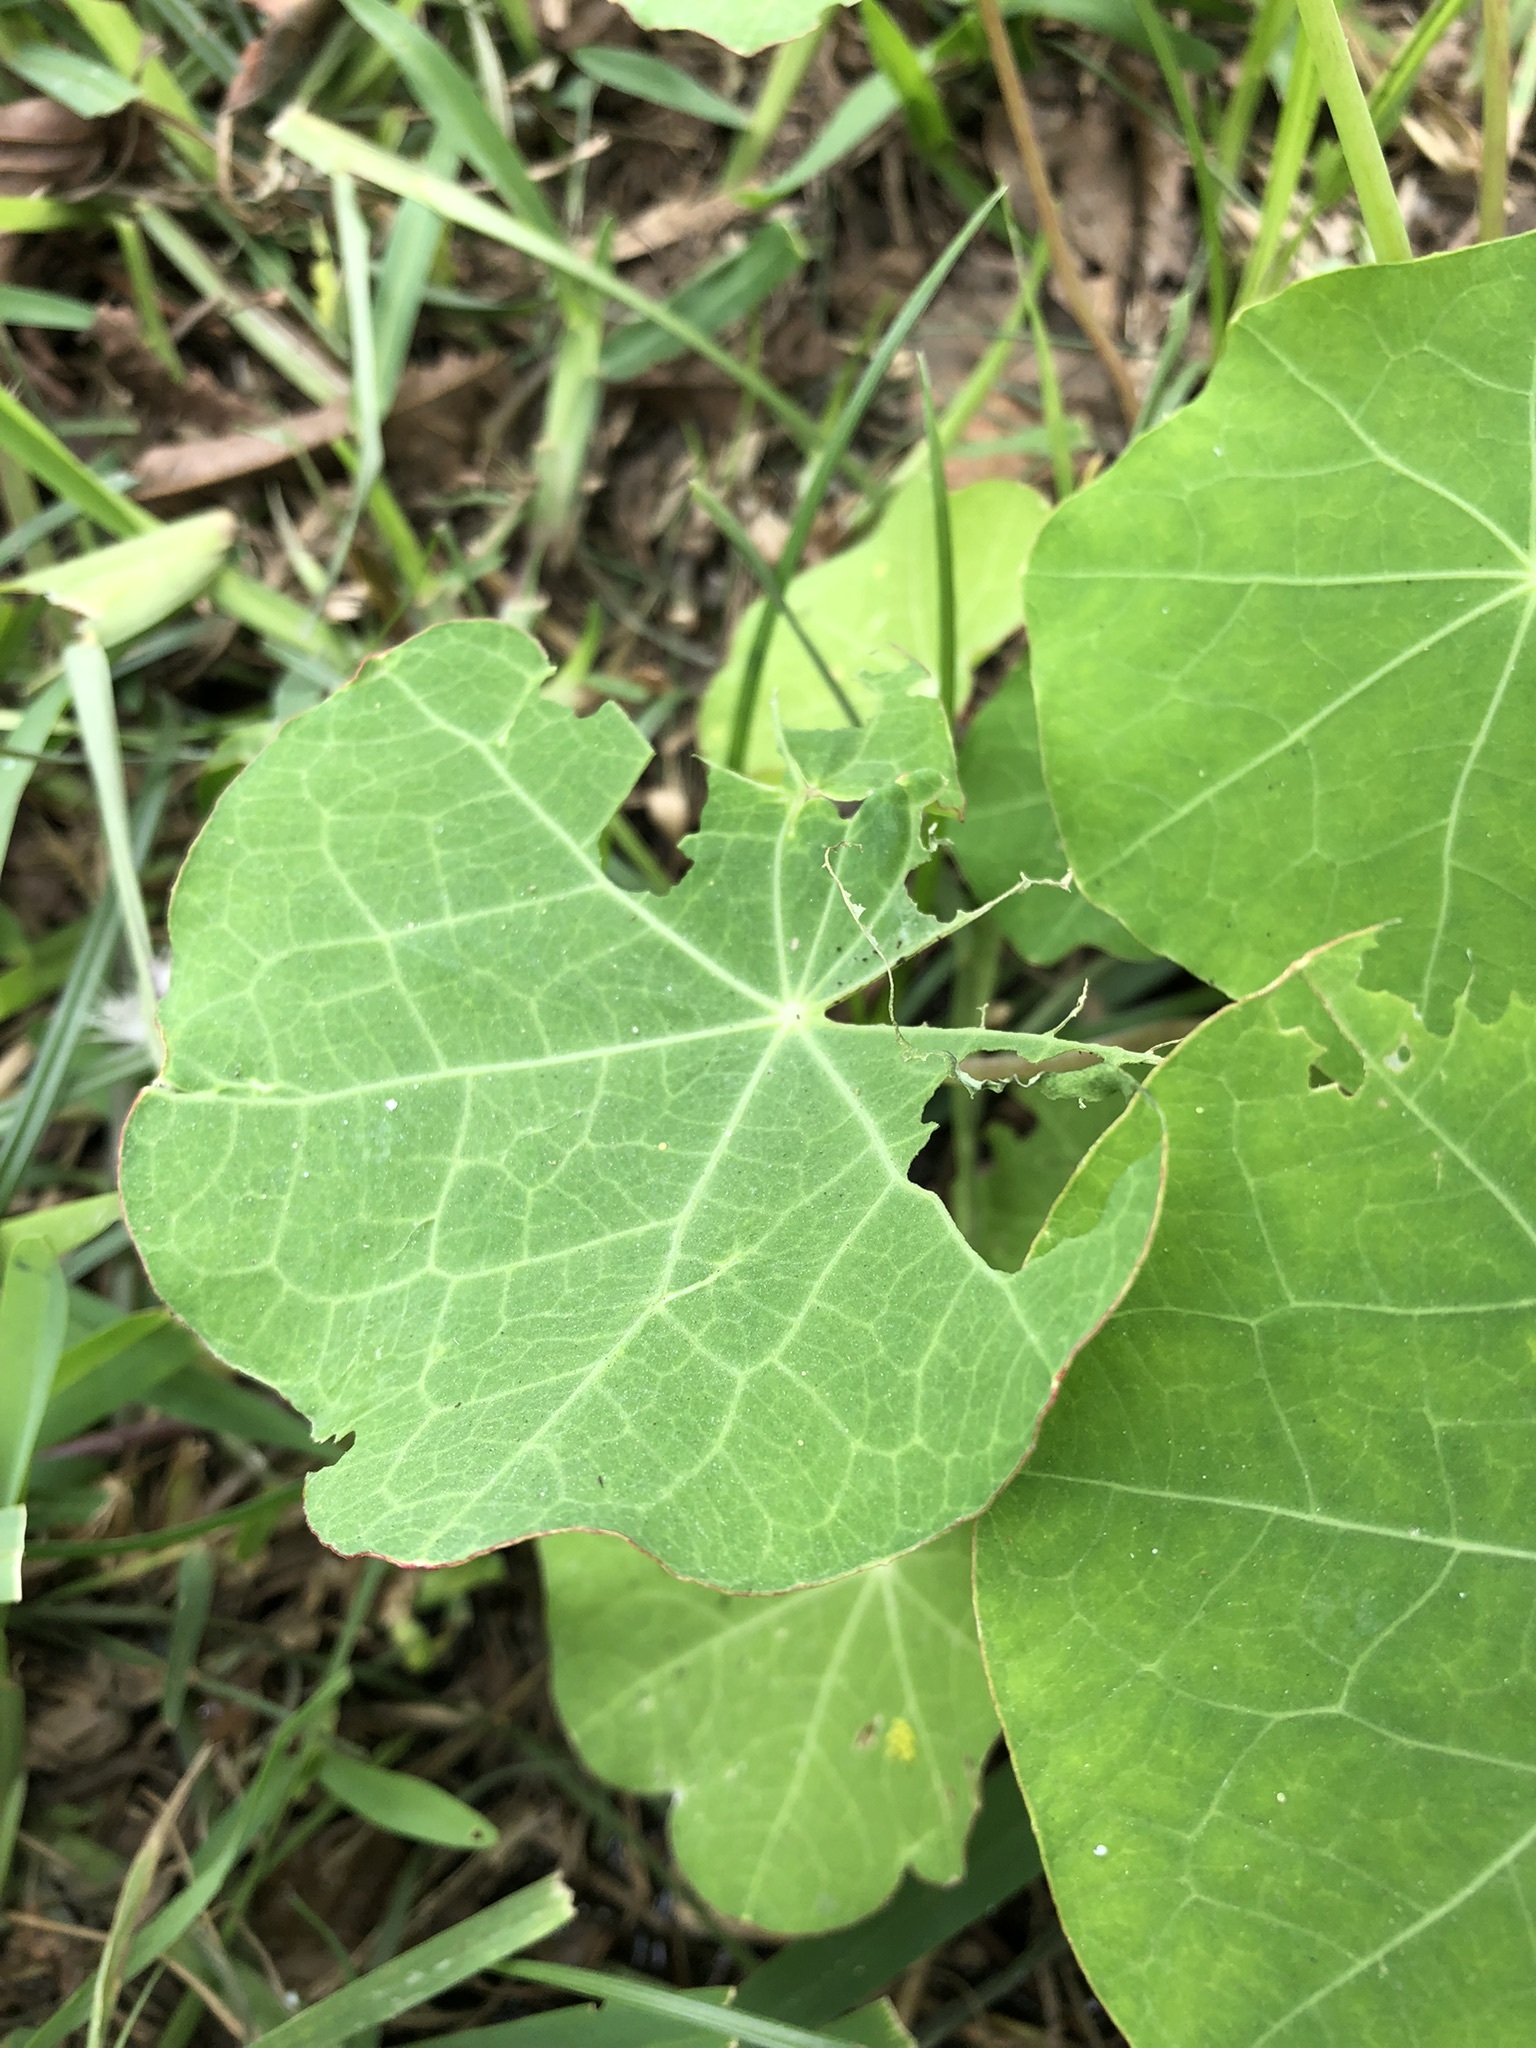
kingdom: Plantae
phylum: Tracheophyta
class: Magnoliopsida
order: Brassicales
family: Tropaeolaceae
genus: Tropaeolum
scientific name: Tropaeolum majus
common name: Nasturtium
